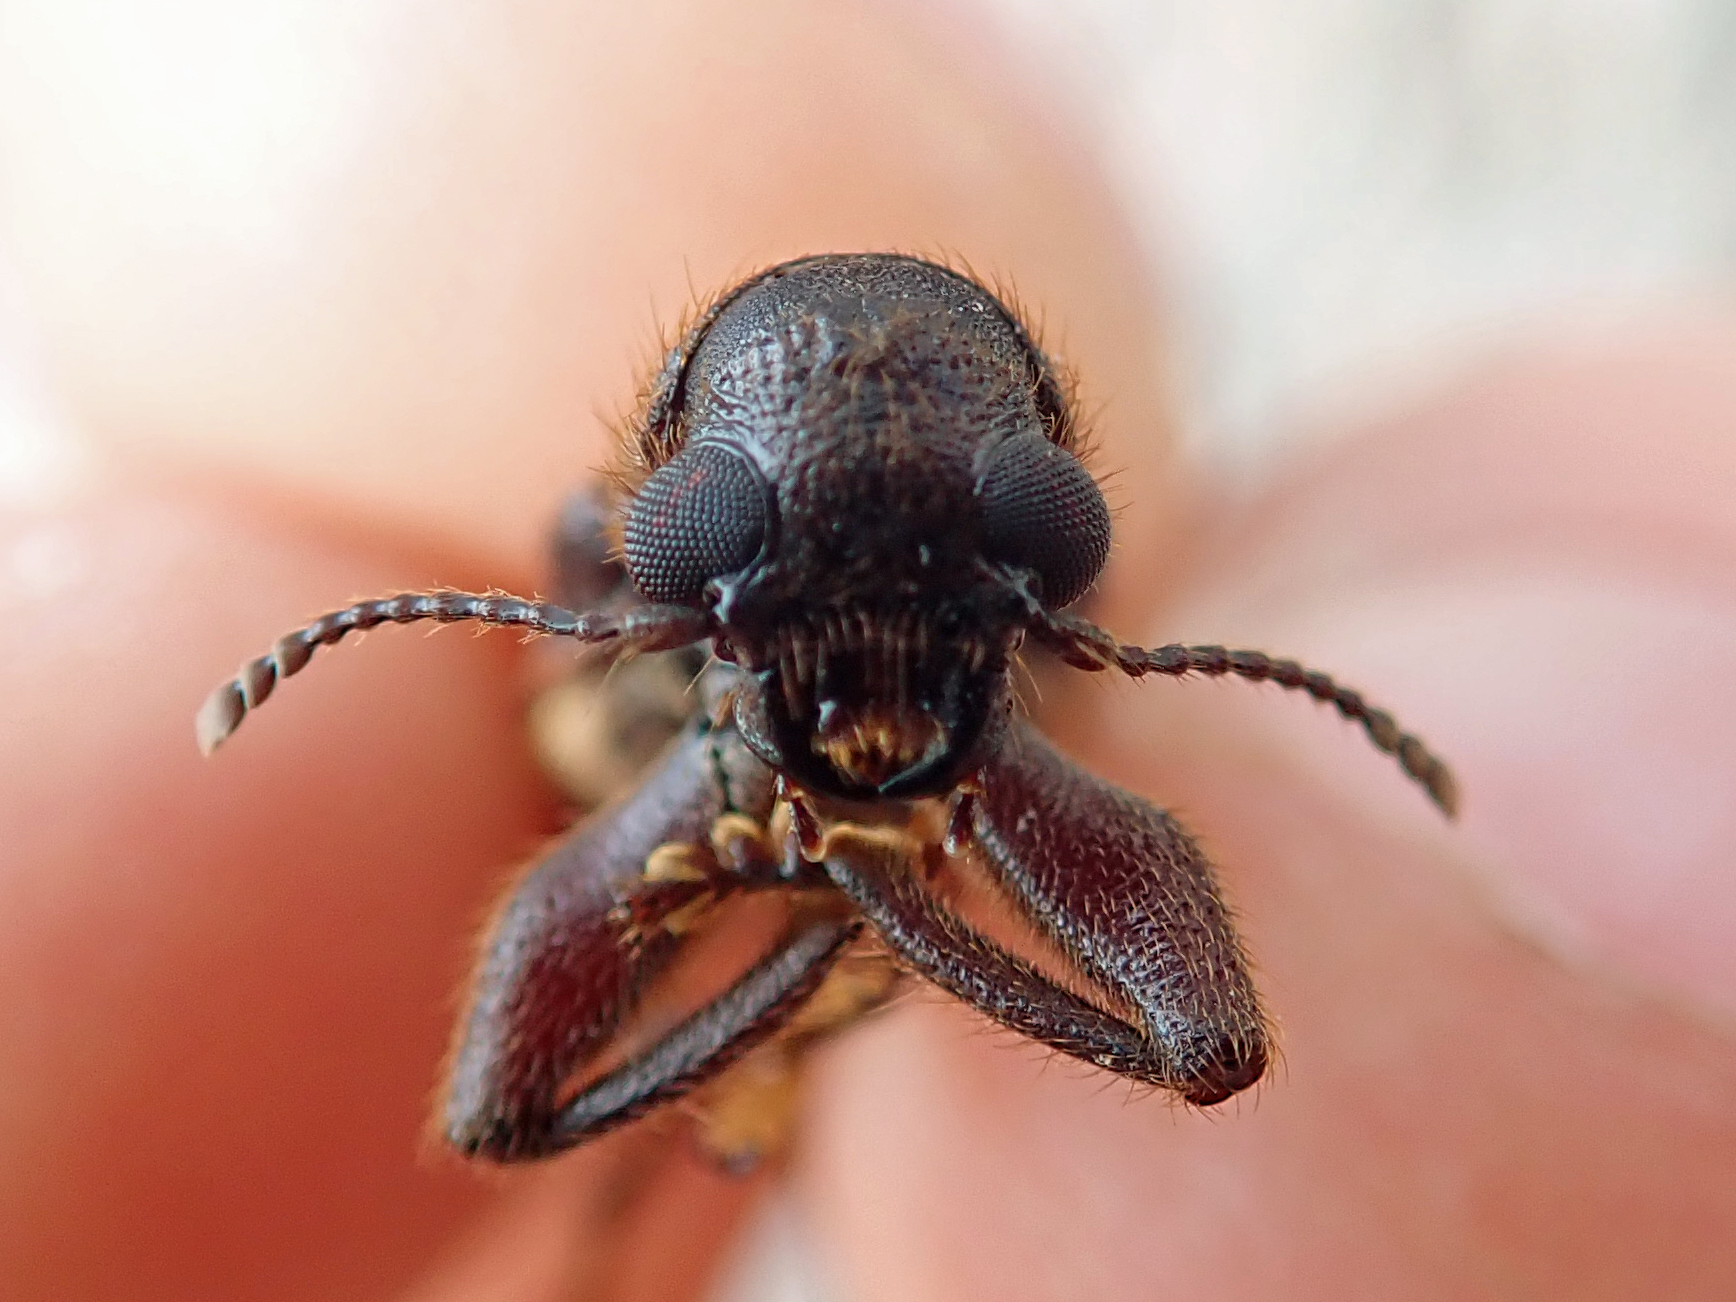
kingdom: Animalia
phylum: Arthropoda
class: Insecta
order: Coleoptera
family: Cleridae
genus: Eunatalis
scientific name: Eunatalis semicostata
